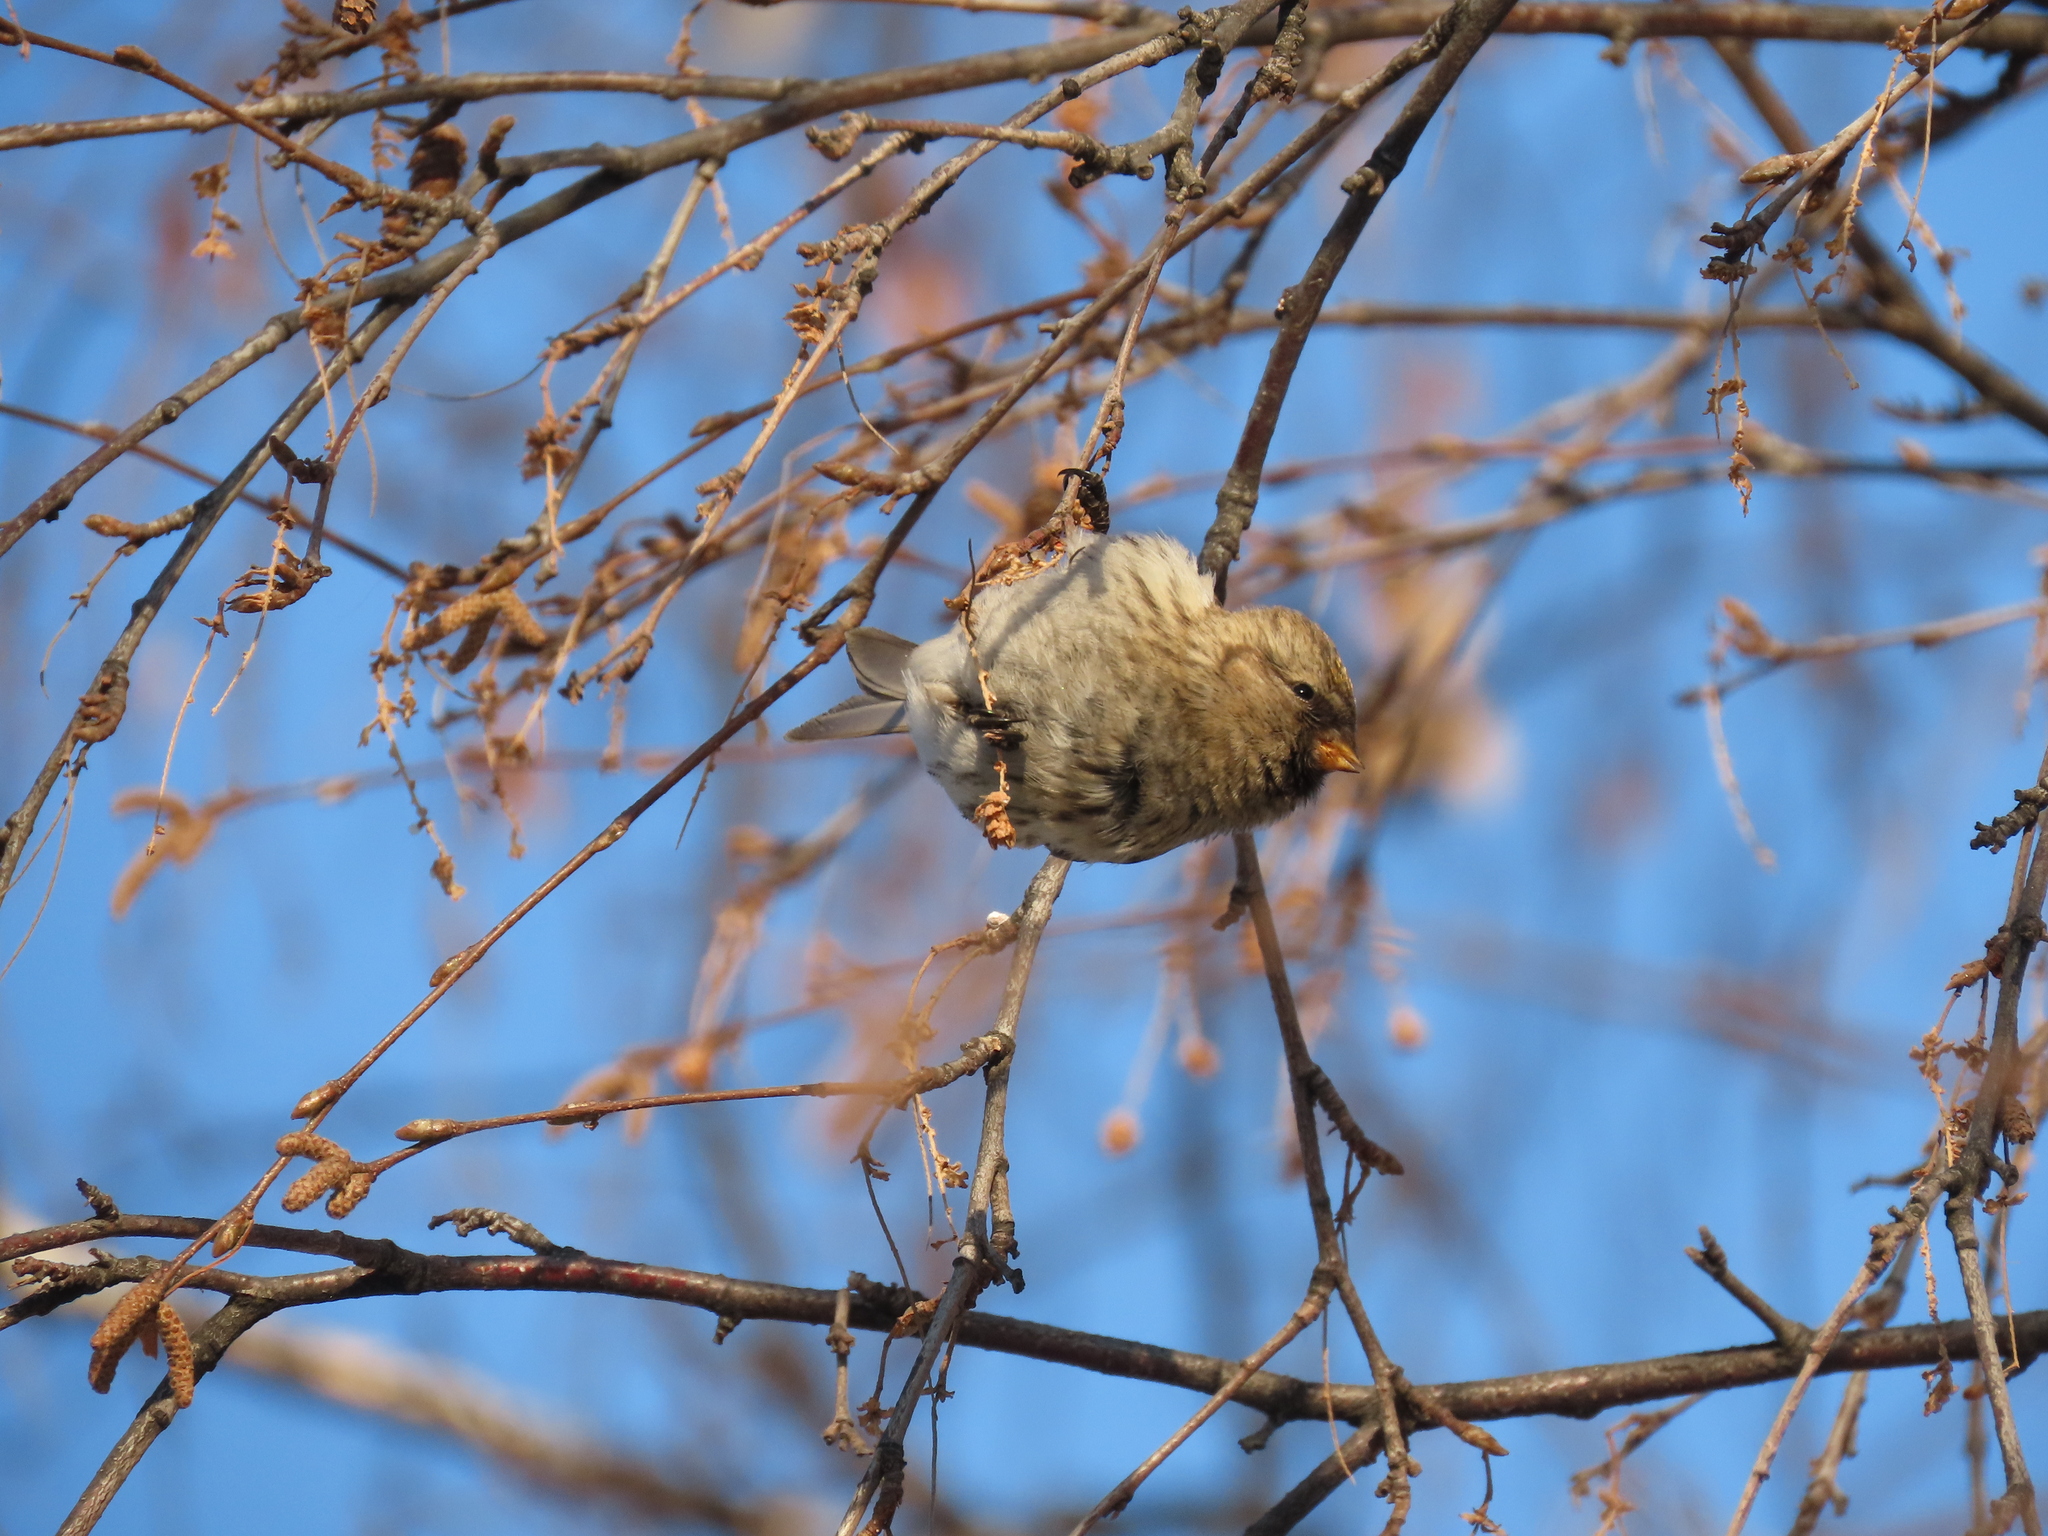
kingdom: Animalia
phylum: Chordata
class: Aves
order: Passeriformes
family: Fringillidae
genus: Acanthis
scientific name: Acanthis flammea
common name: Common redpoll
